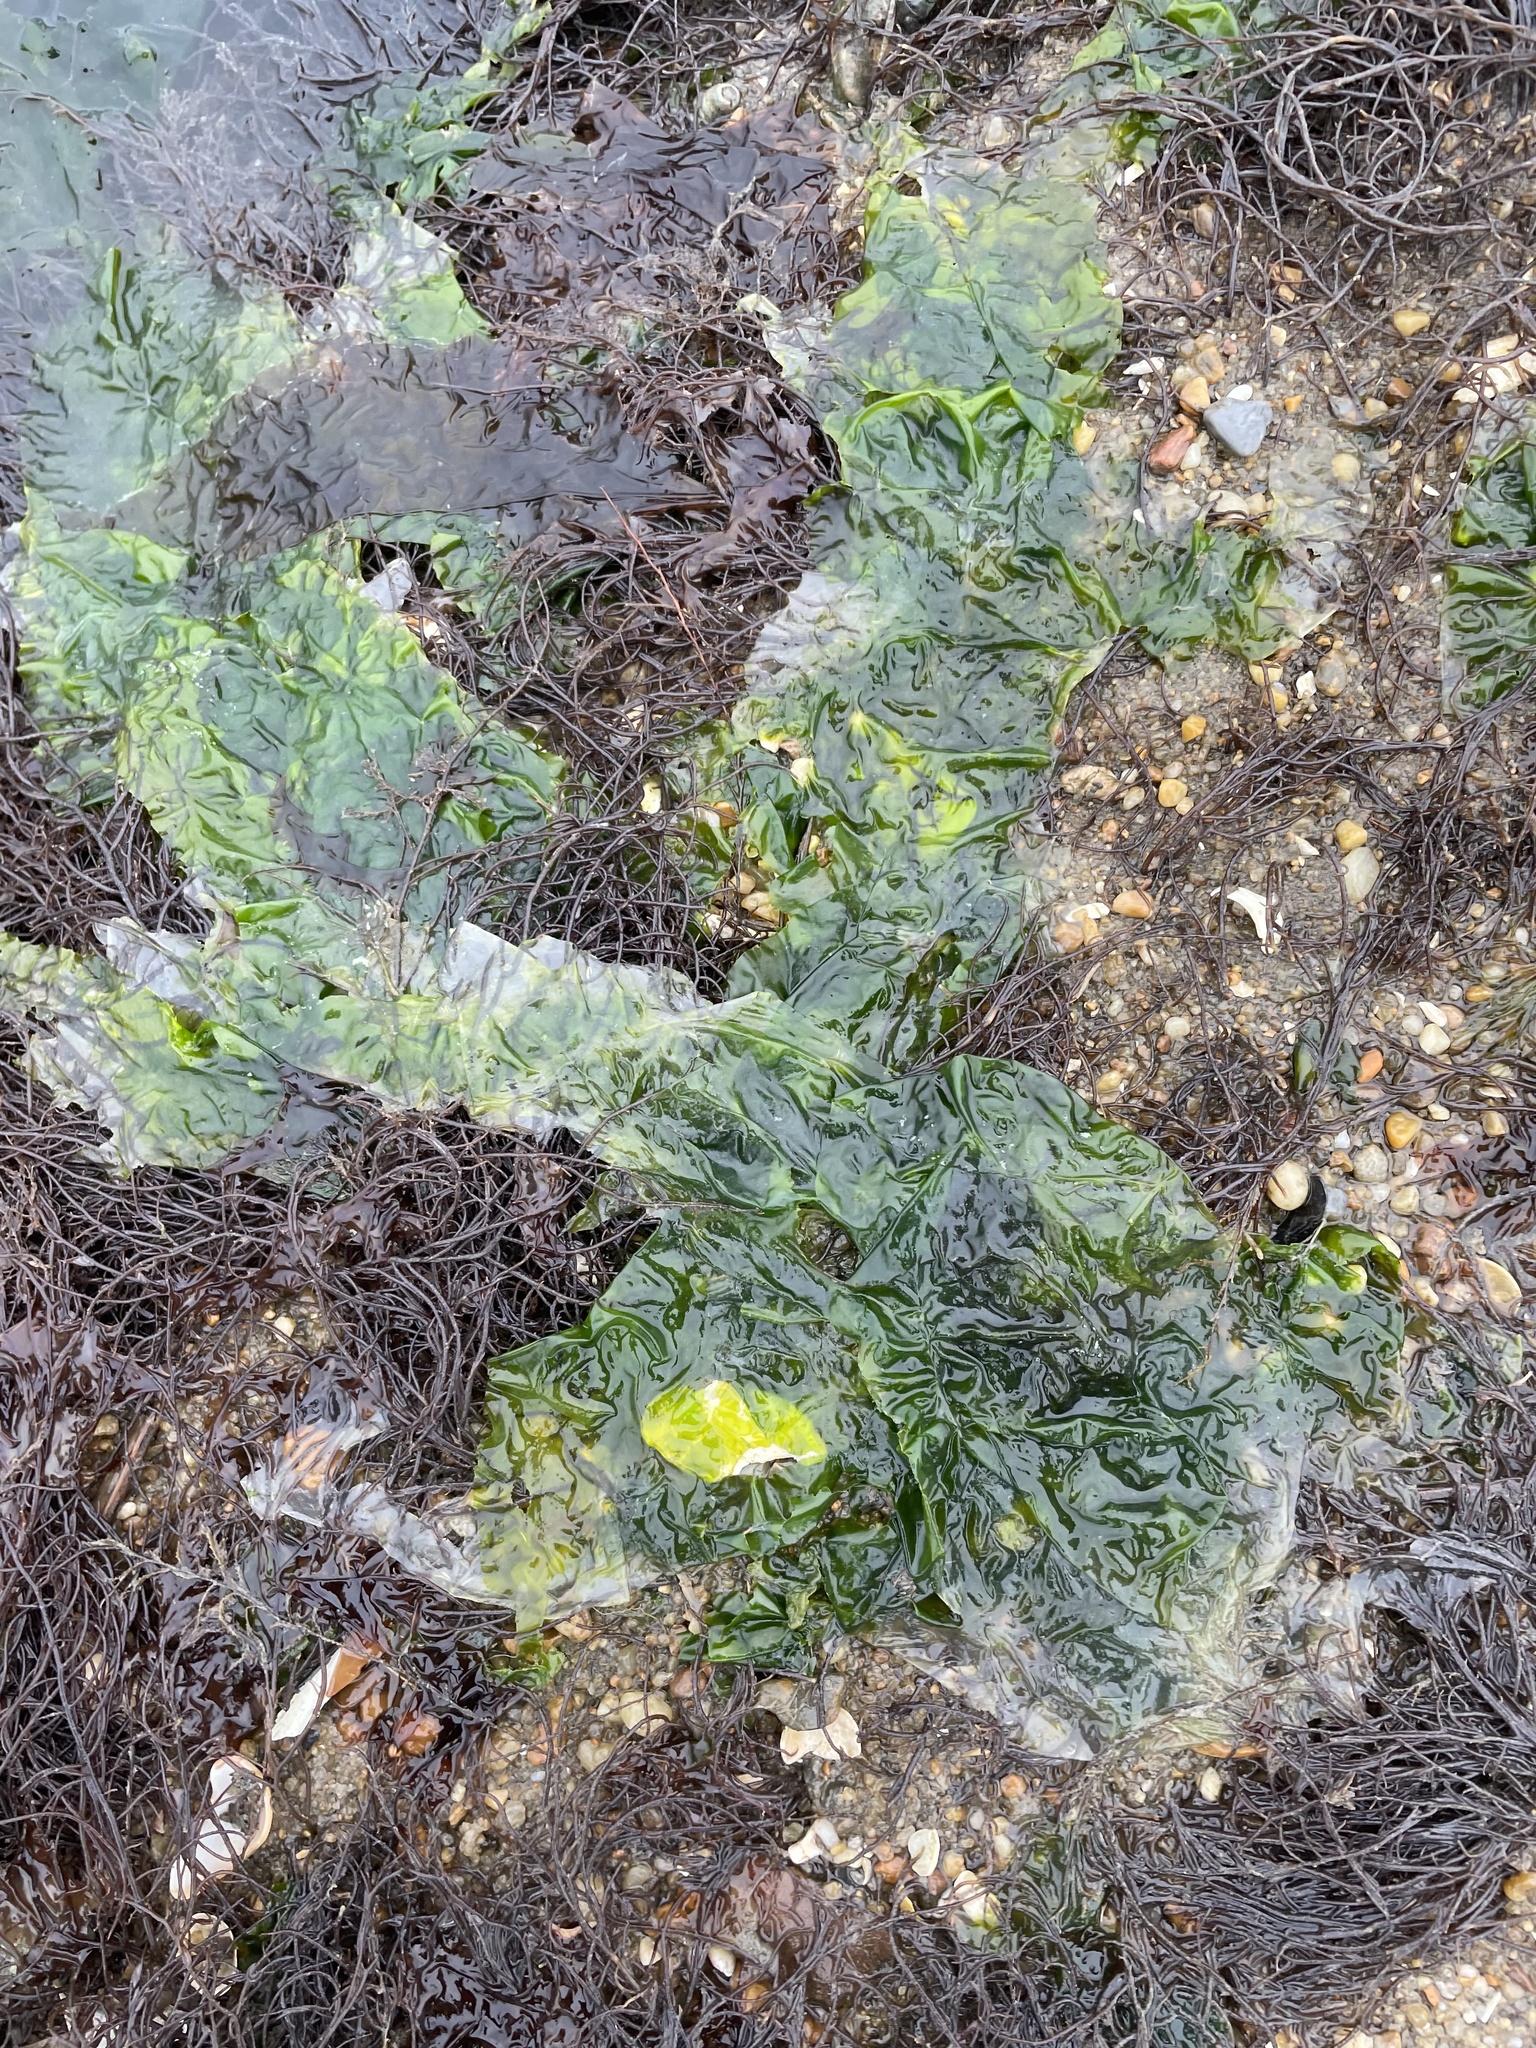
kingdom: Plantae
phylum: Chlorophyta
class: Ulvophyceae
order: Ulvales
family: Ulvaceae
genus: Ulva
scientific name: Ulva lactuca
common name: Sea lettuce
